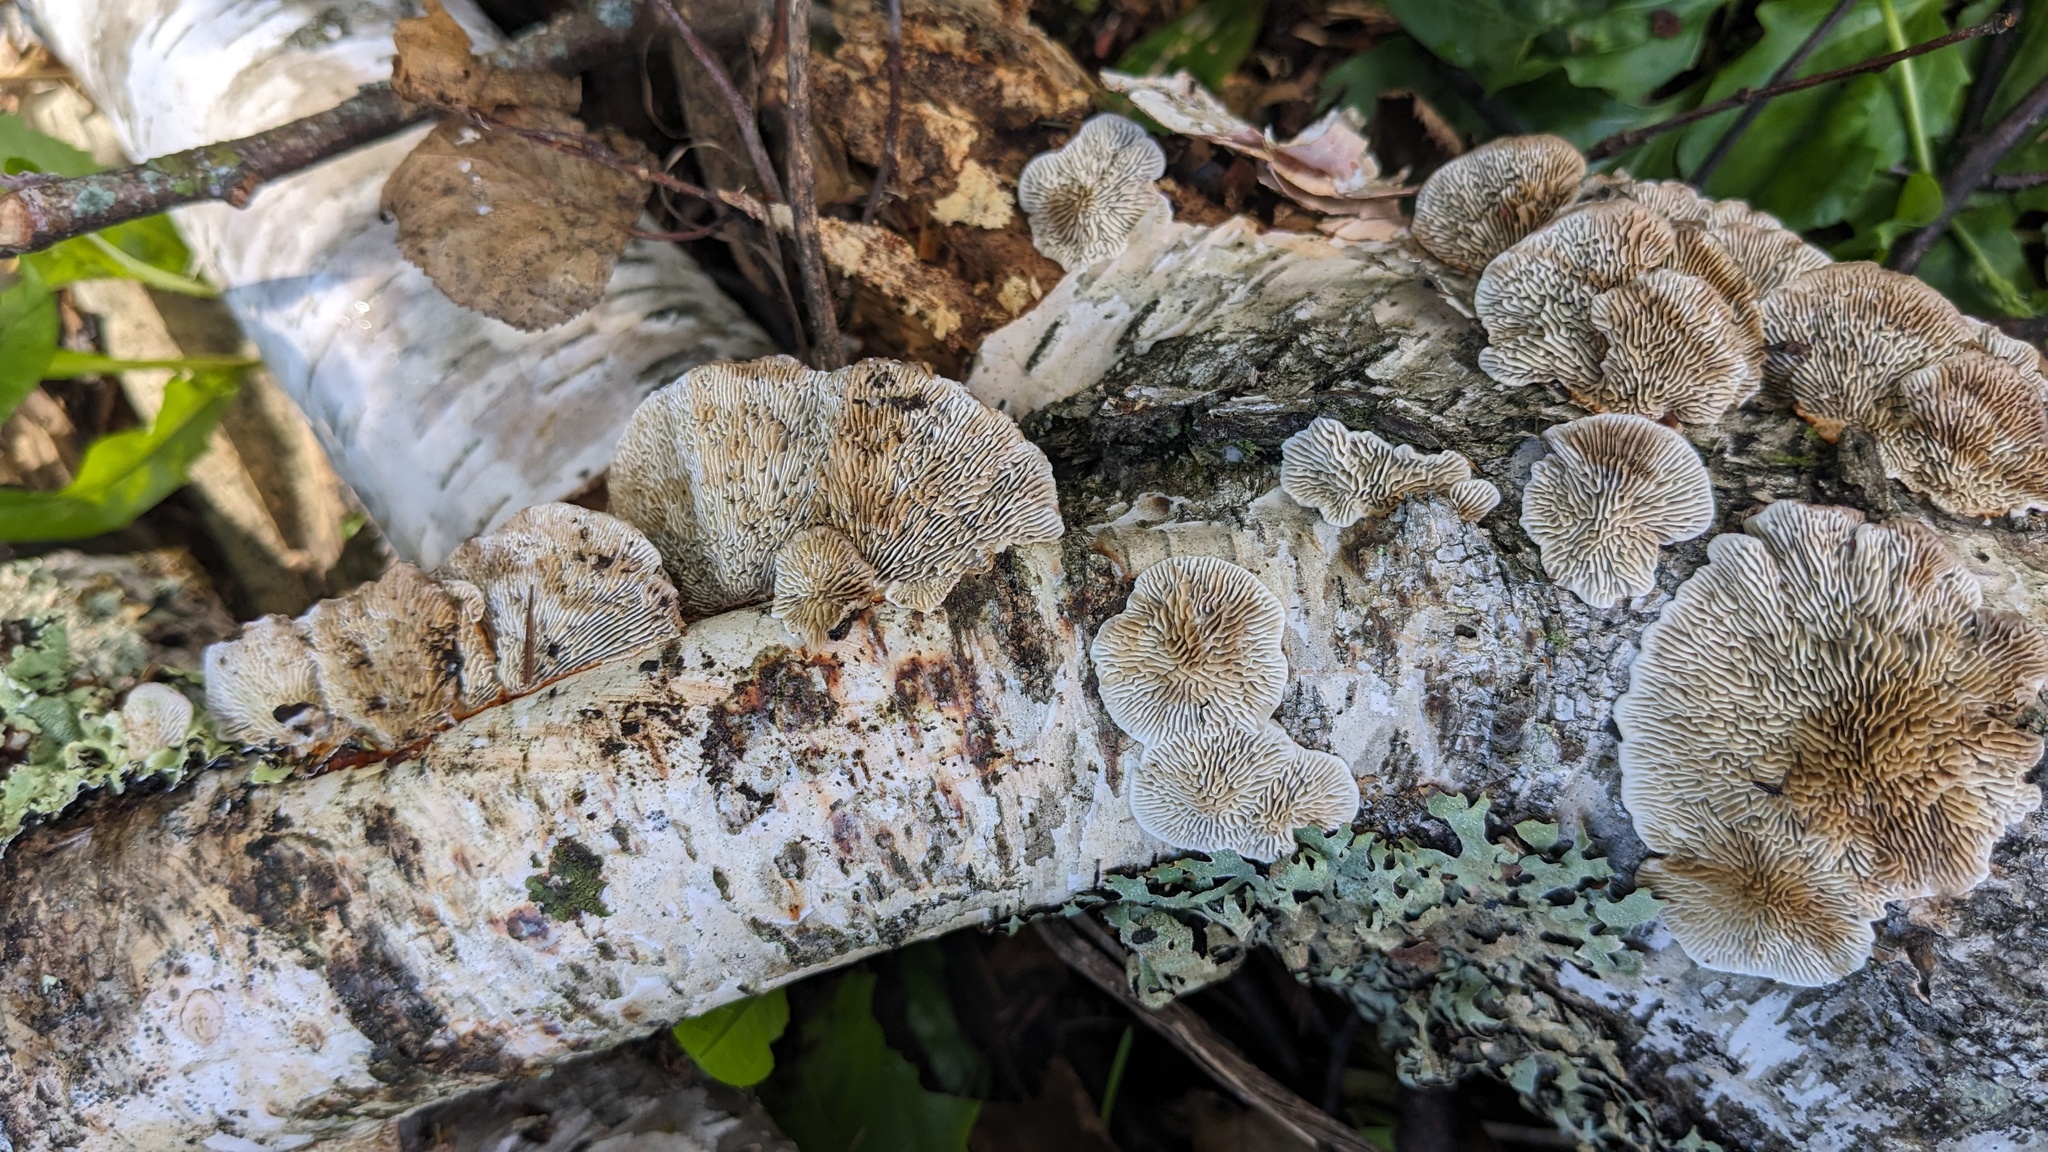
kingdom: Fungi
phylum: Basidiomycota
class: Agaricomycetes
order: Polyporales
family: Polyporaceae
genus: Daedaleopsis
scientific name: Daedaleopsis tricolor
